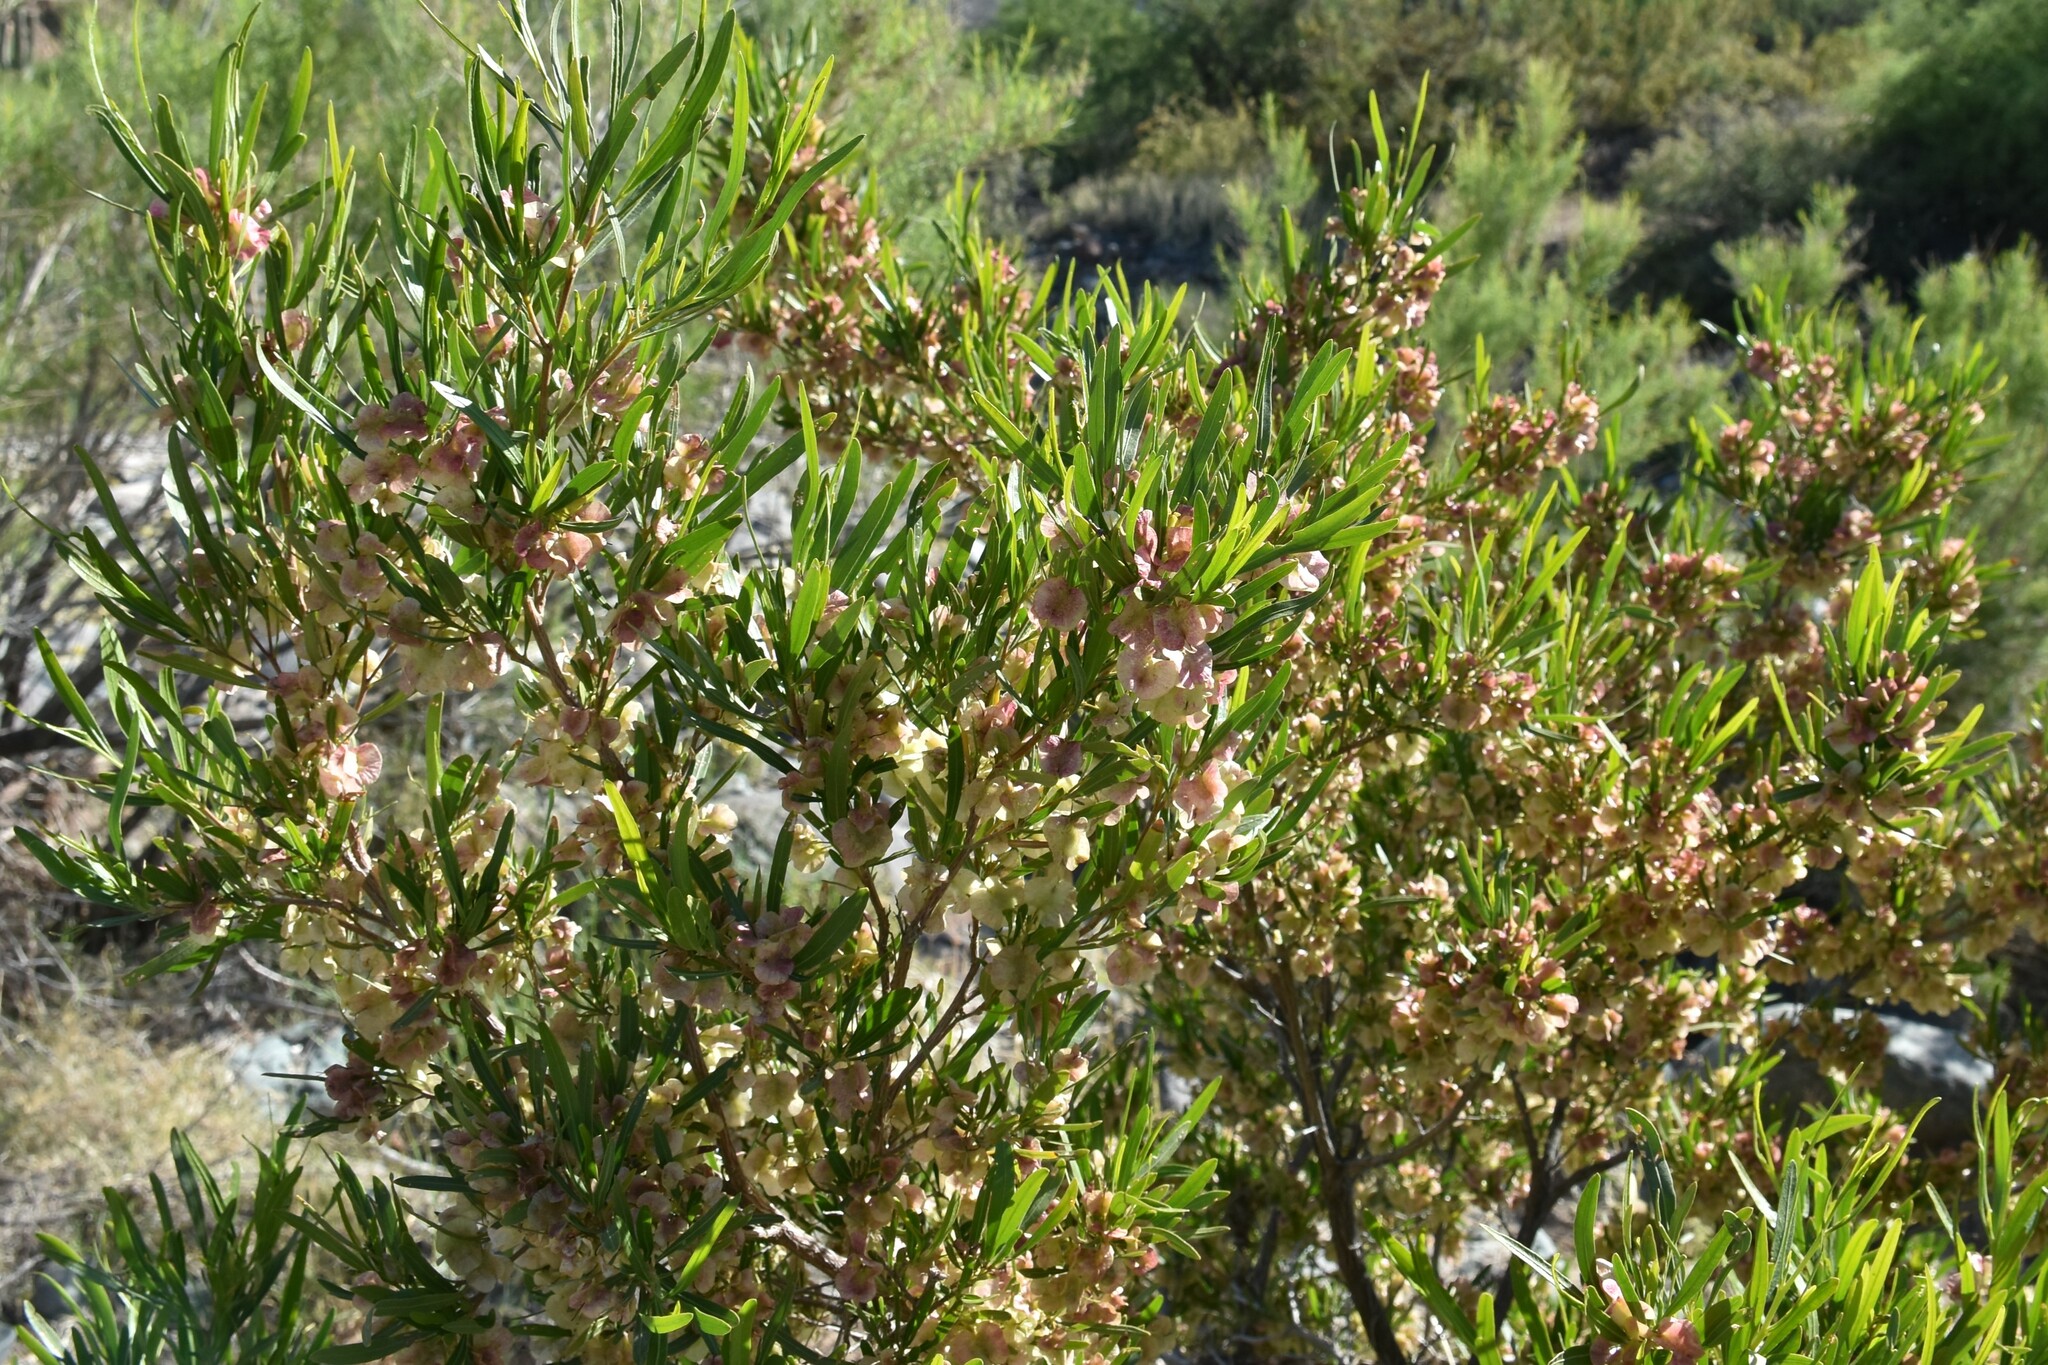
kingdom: Plantae
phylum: Tracheophyta
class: Magnoliopsida
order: Sapindales
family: Sapindaceae
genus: Dodonaea
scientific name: Dodonaea viscosa
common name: Hopbush
